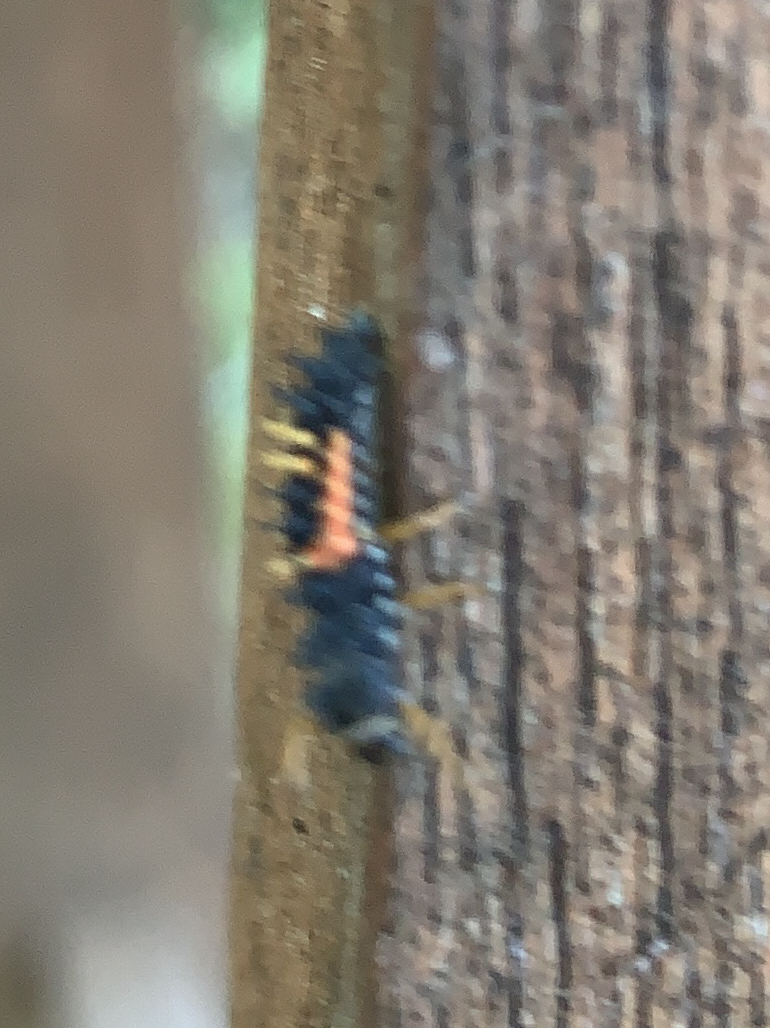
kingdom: Animalia
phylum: Arthropoda
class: Insecta
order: Coleoptera
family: Coccinellidae
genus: Harmonia
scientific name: Harmonia axyridis
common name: Harlequin ladybird
